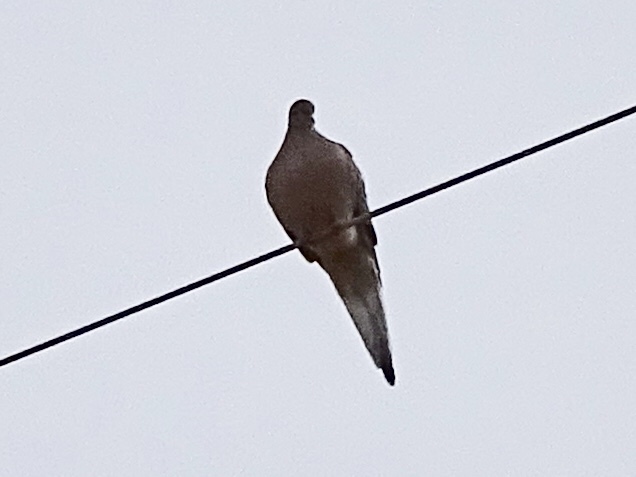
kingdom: Animalia
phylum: Chordata
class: Aves
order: Columbiformes
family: Columbidae
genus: Zenaida
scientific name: Zenaida macroura
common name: Mourning dove
